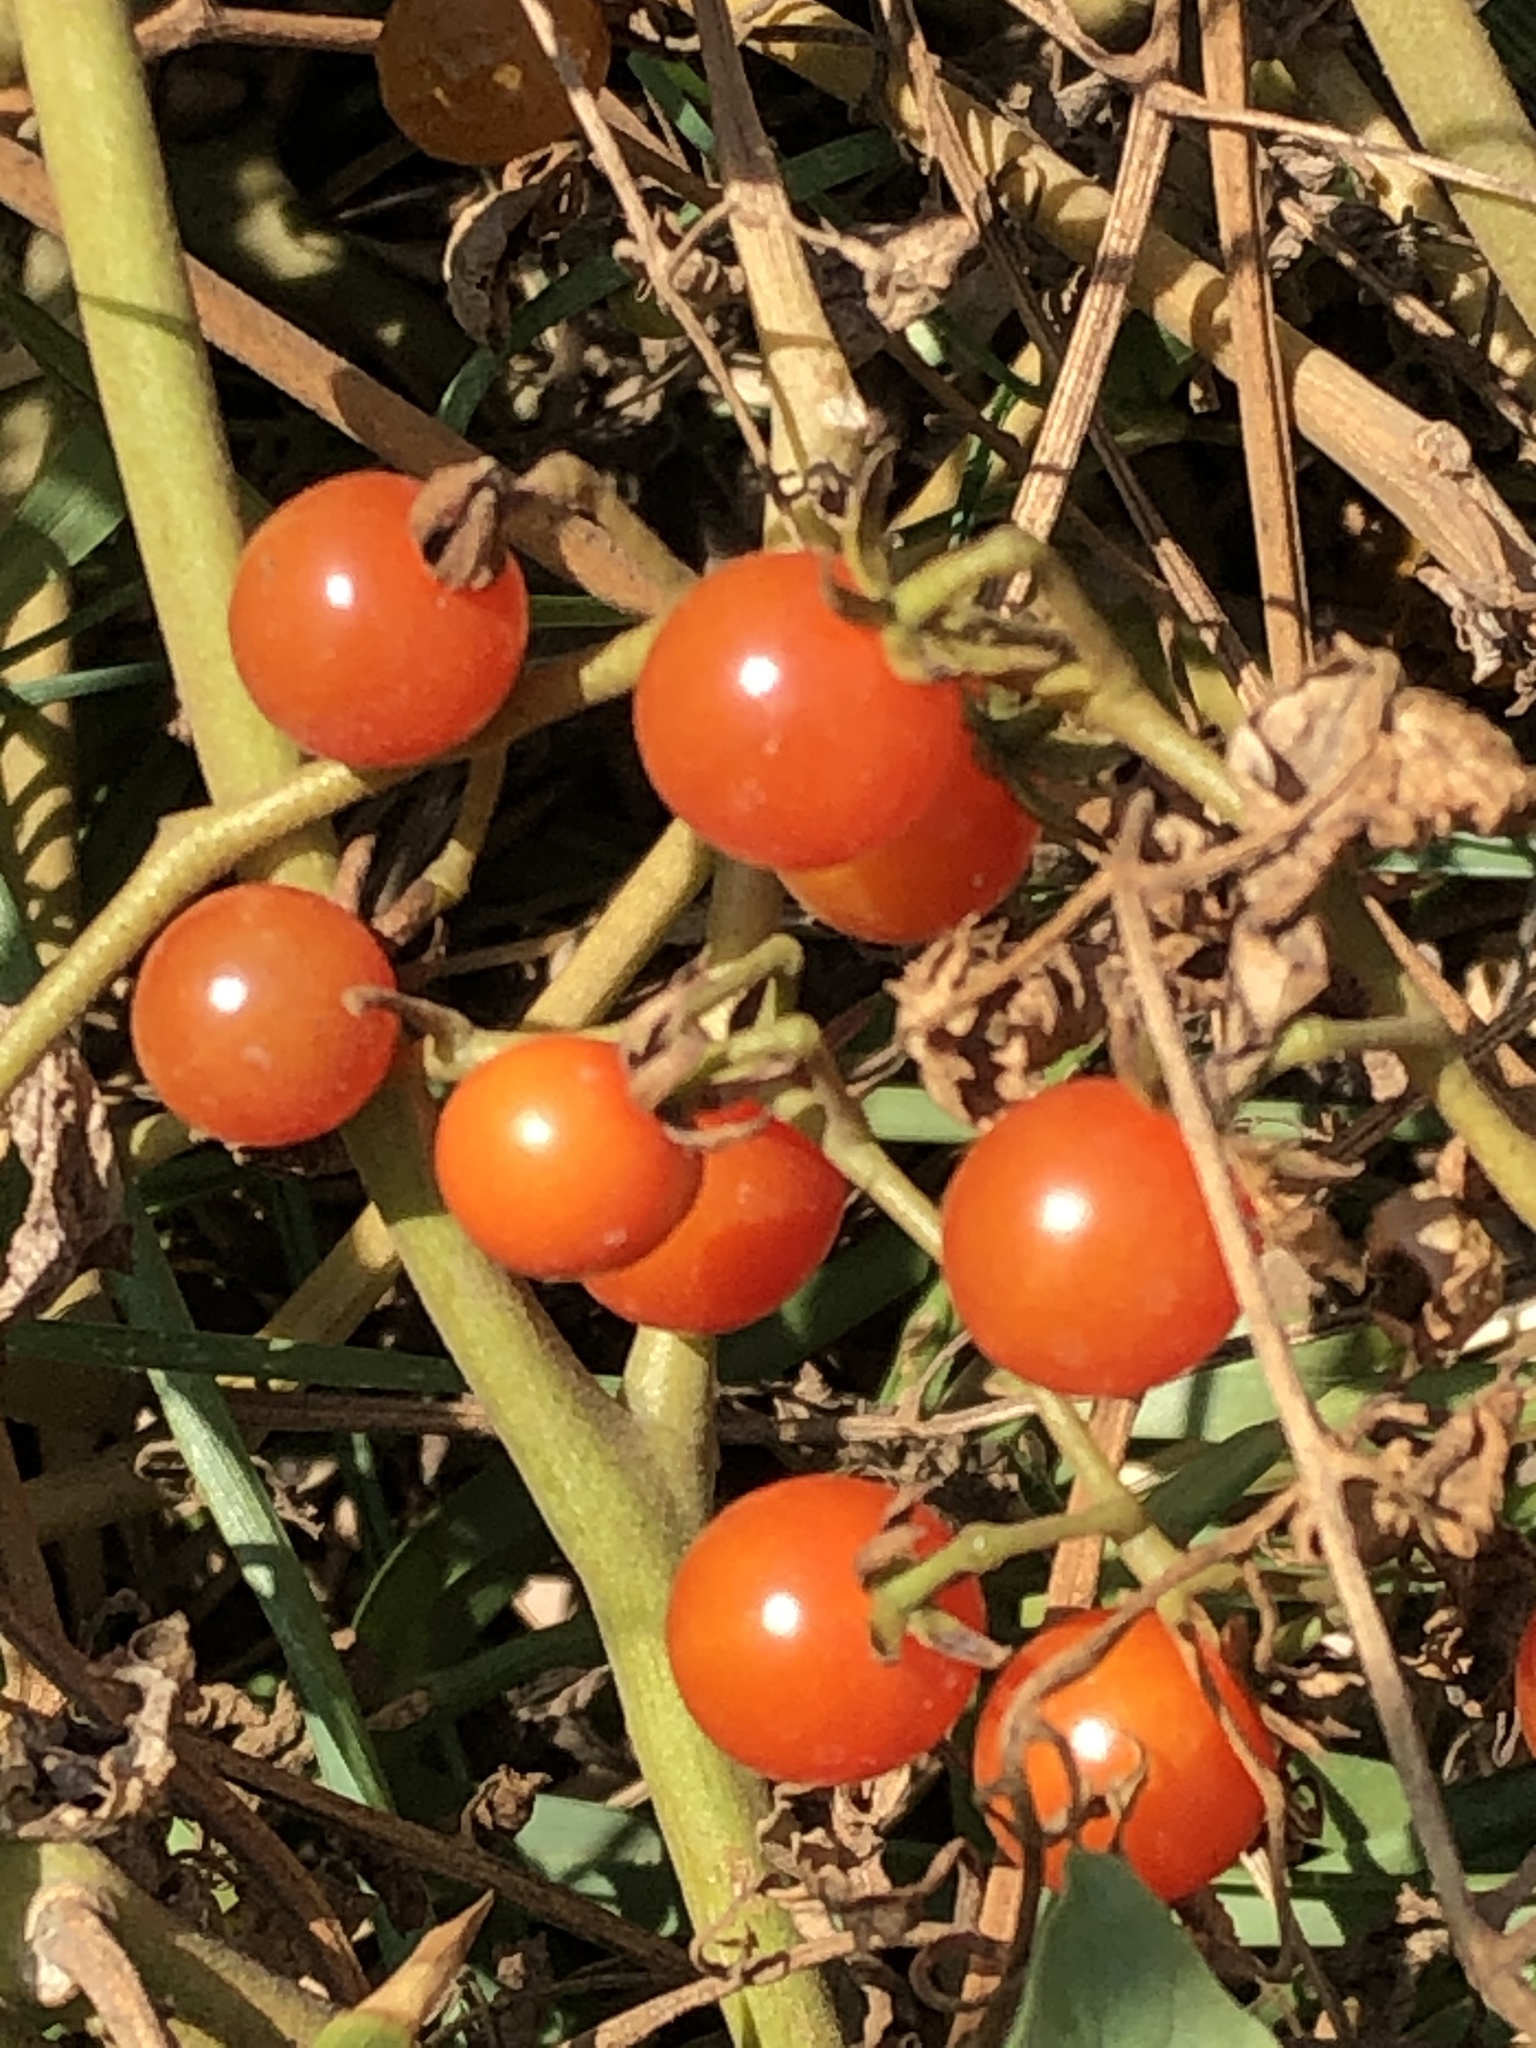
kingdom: Plantae
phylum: Tracheophyta
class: Magnoliopsida
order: Solanales
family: Solanaceae
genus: Solanum
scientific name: Solanum pimpinellifolium
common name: Currant-tomato
